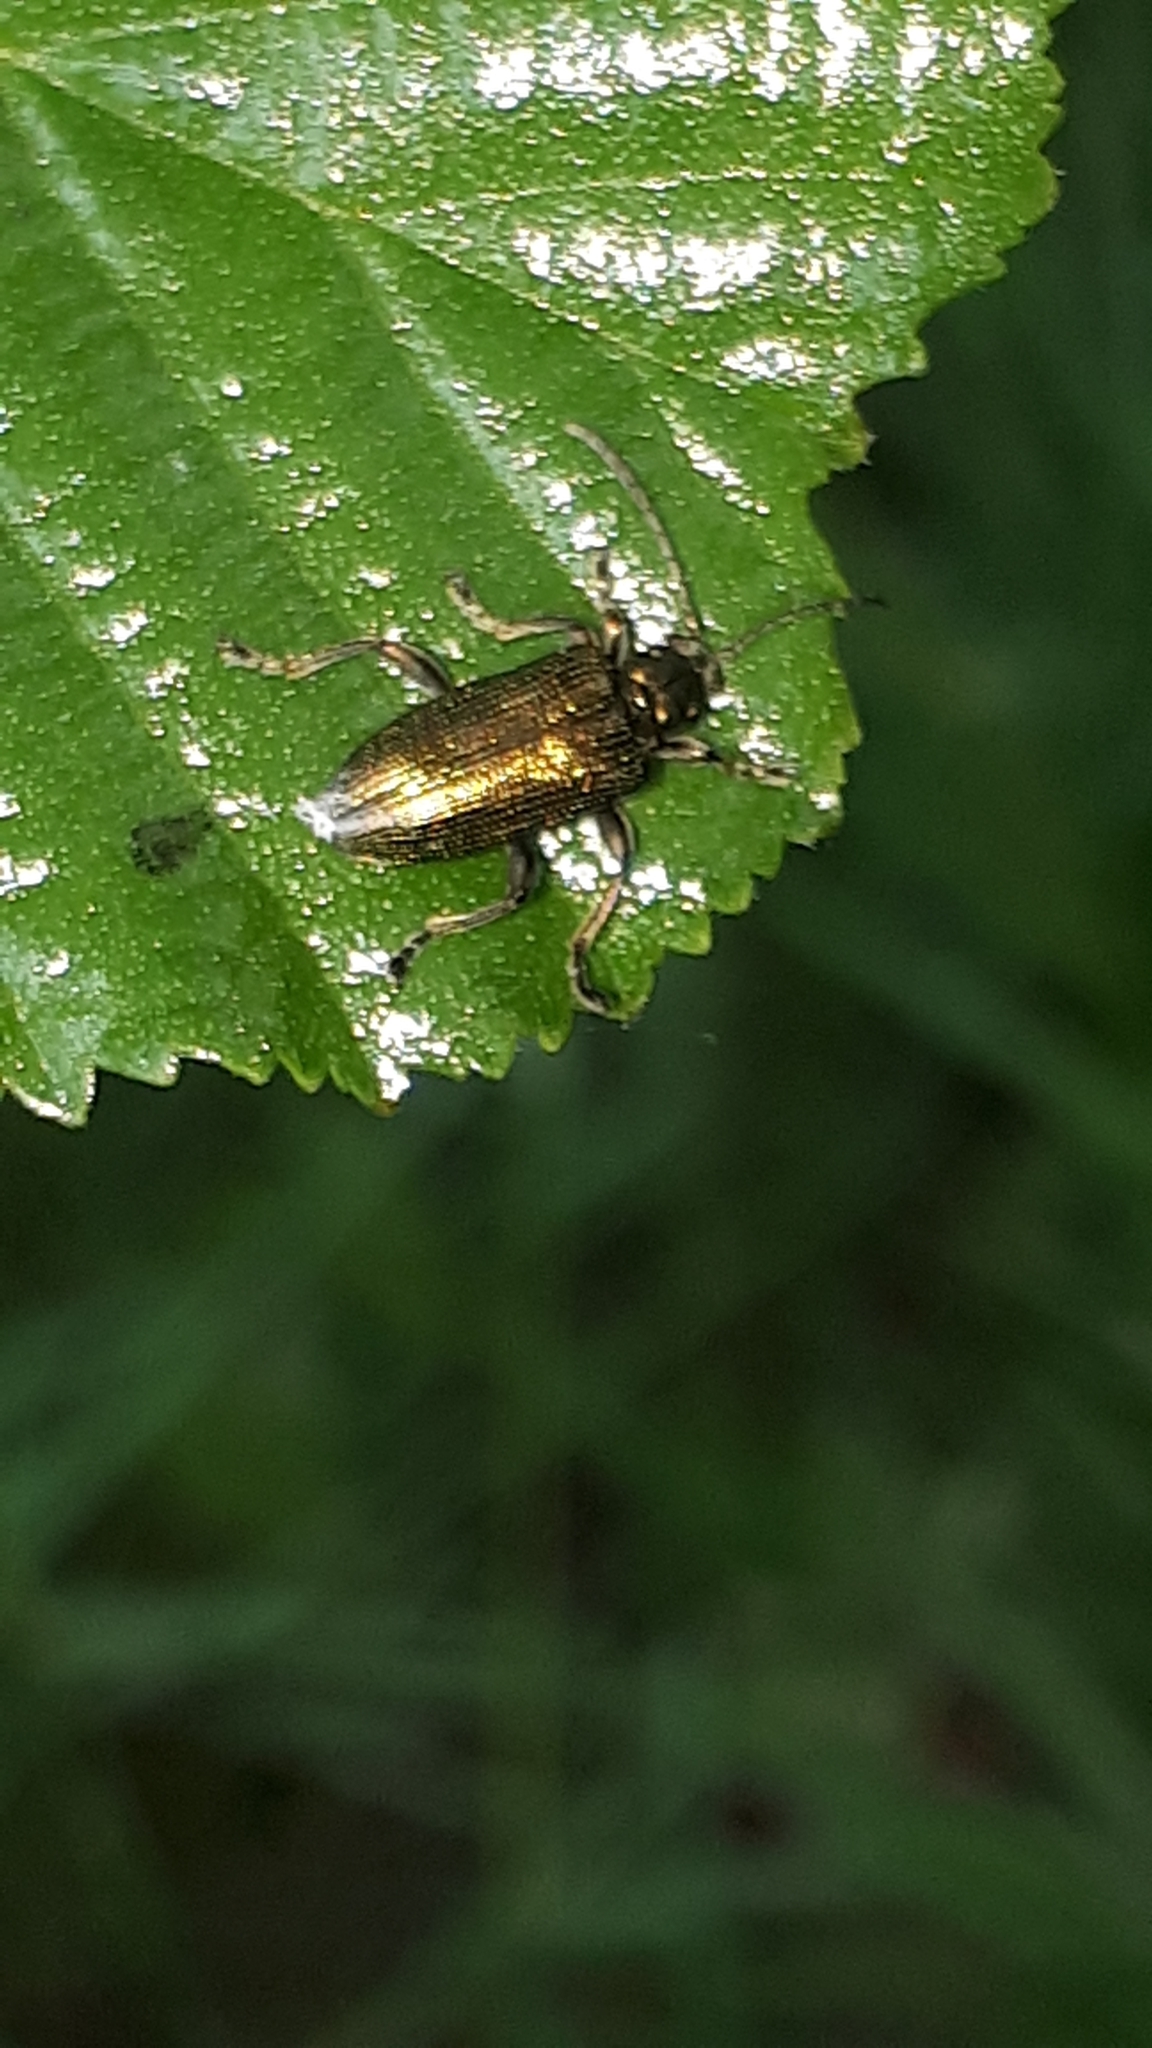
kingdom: Animalia
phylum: Arthropoda
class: Insecta
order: Coleoptera
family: Chrysomelidae
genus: Plateumaris
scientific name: Plateumaris sericea
